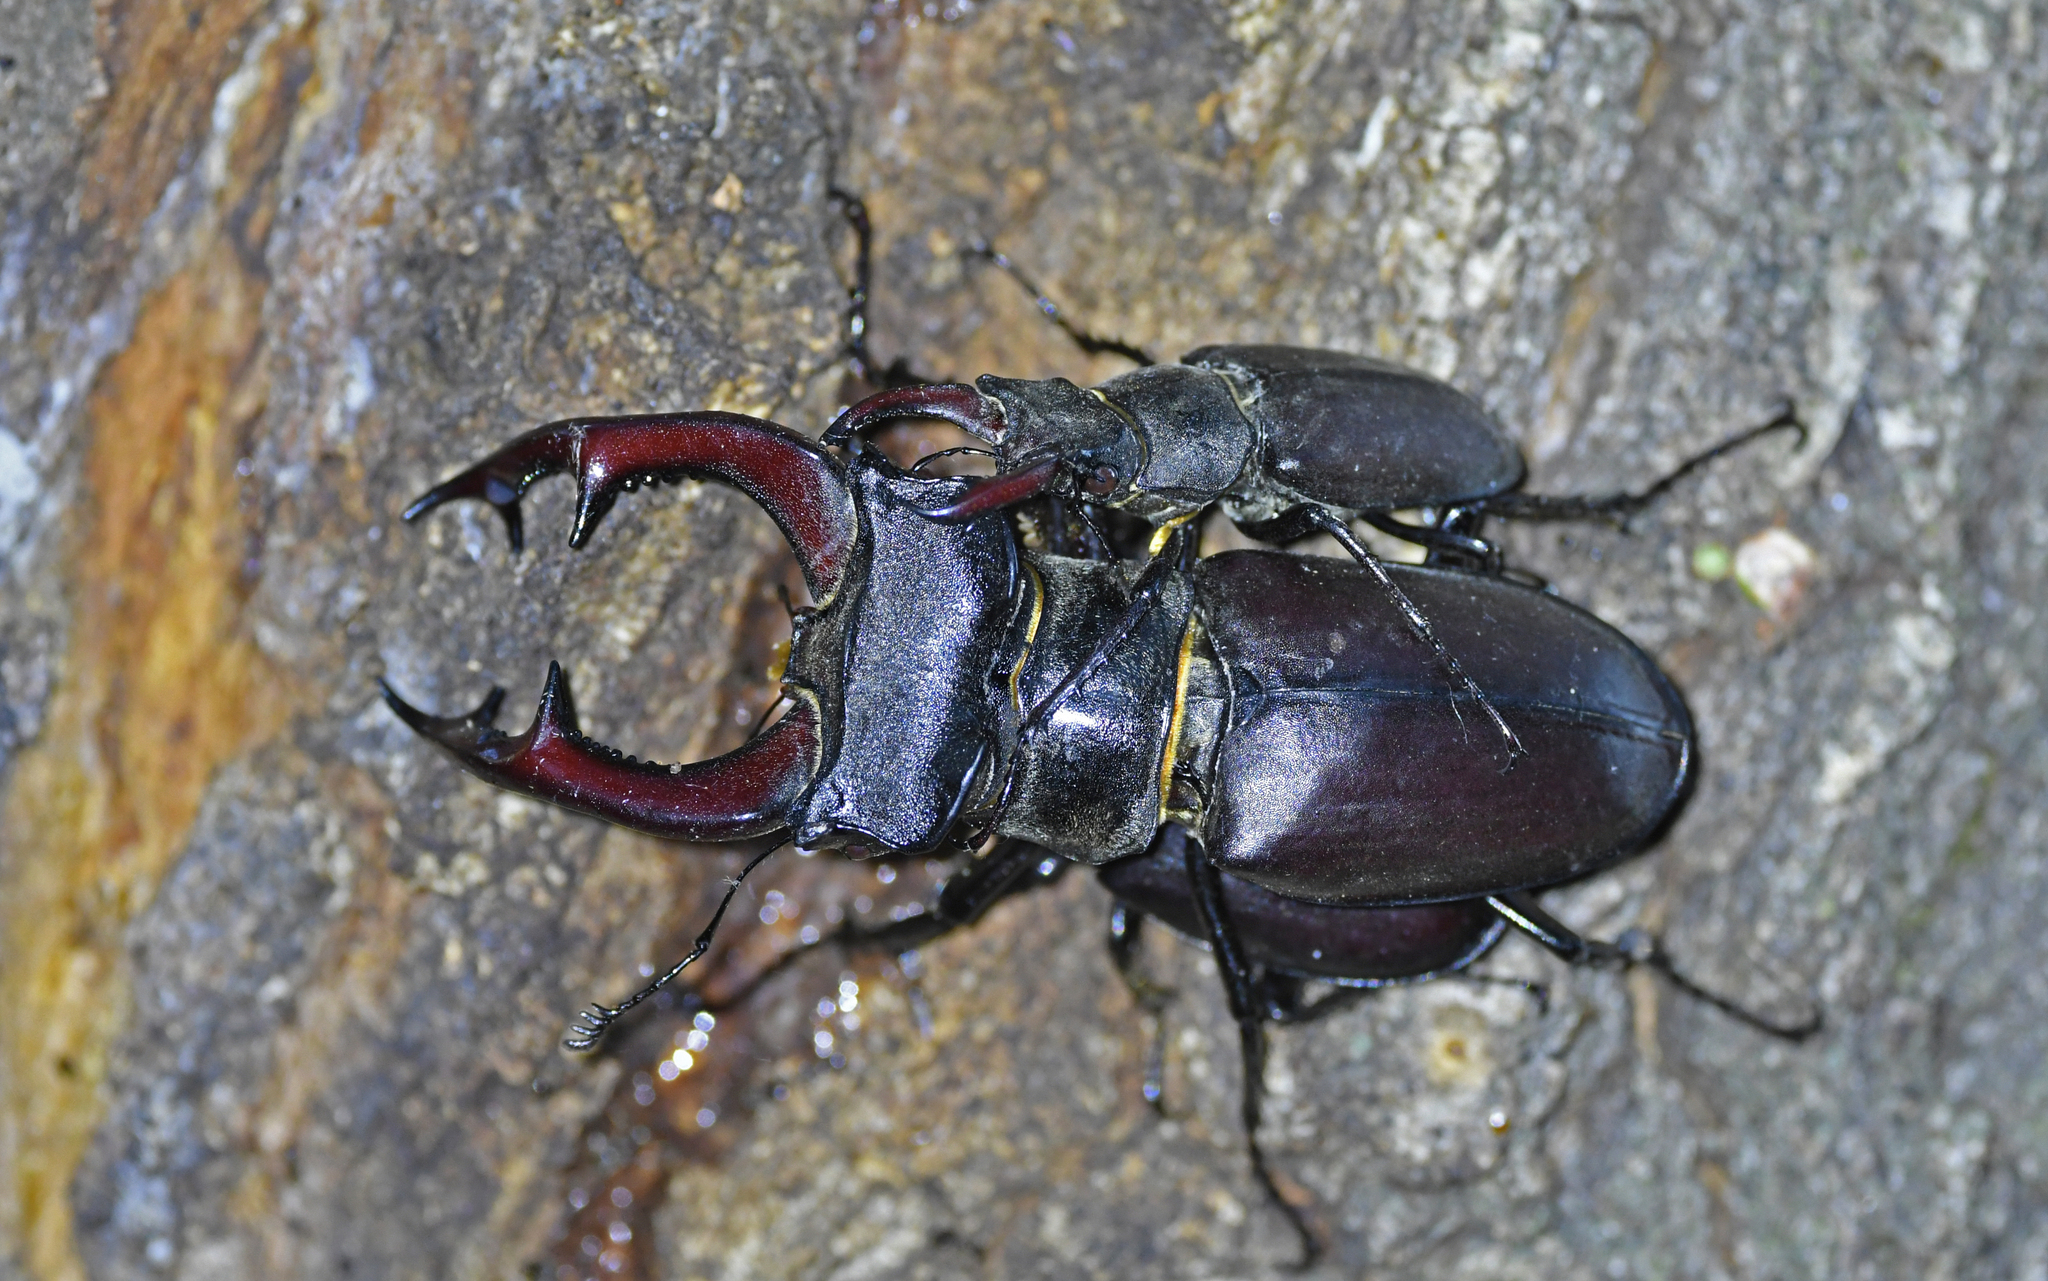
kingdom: Animalia
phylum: Arthropoda
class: Insecta
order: Coleoptera
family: Lucanidae
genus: Lucanus
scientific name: Lucanus cervus
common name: Stag beetle
